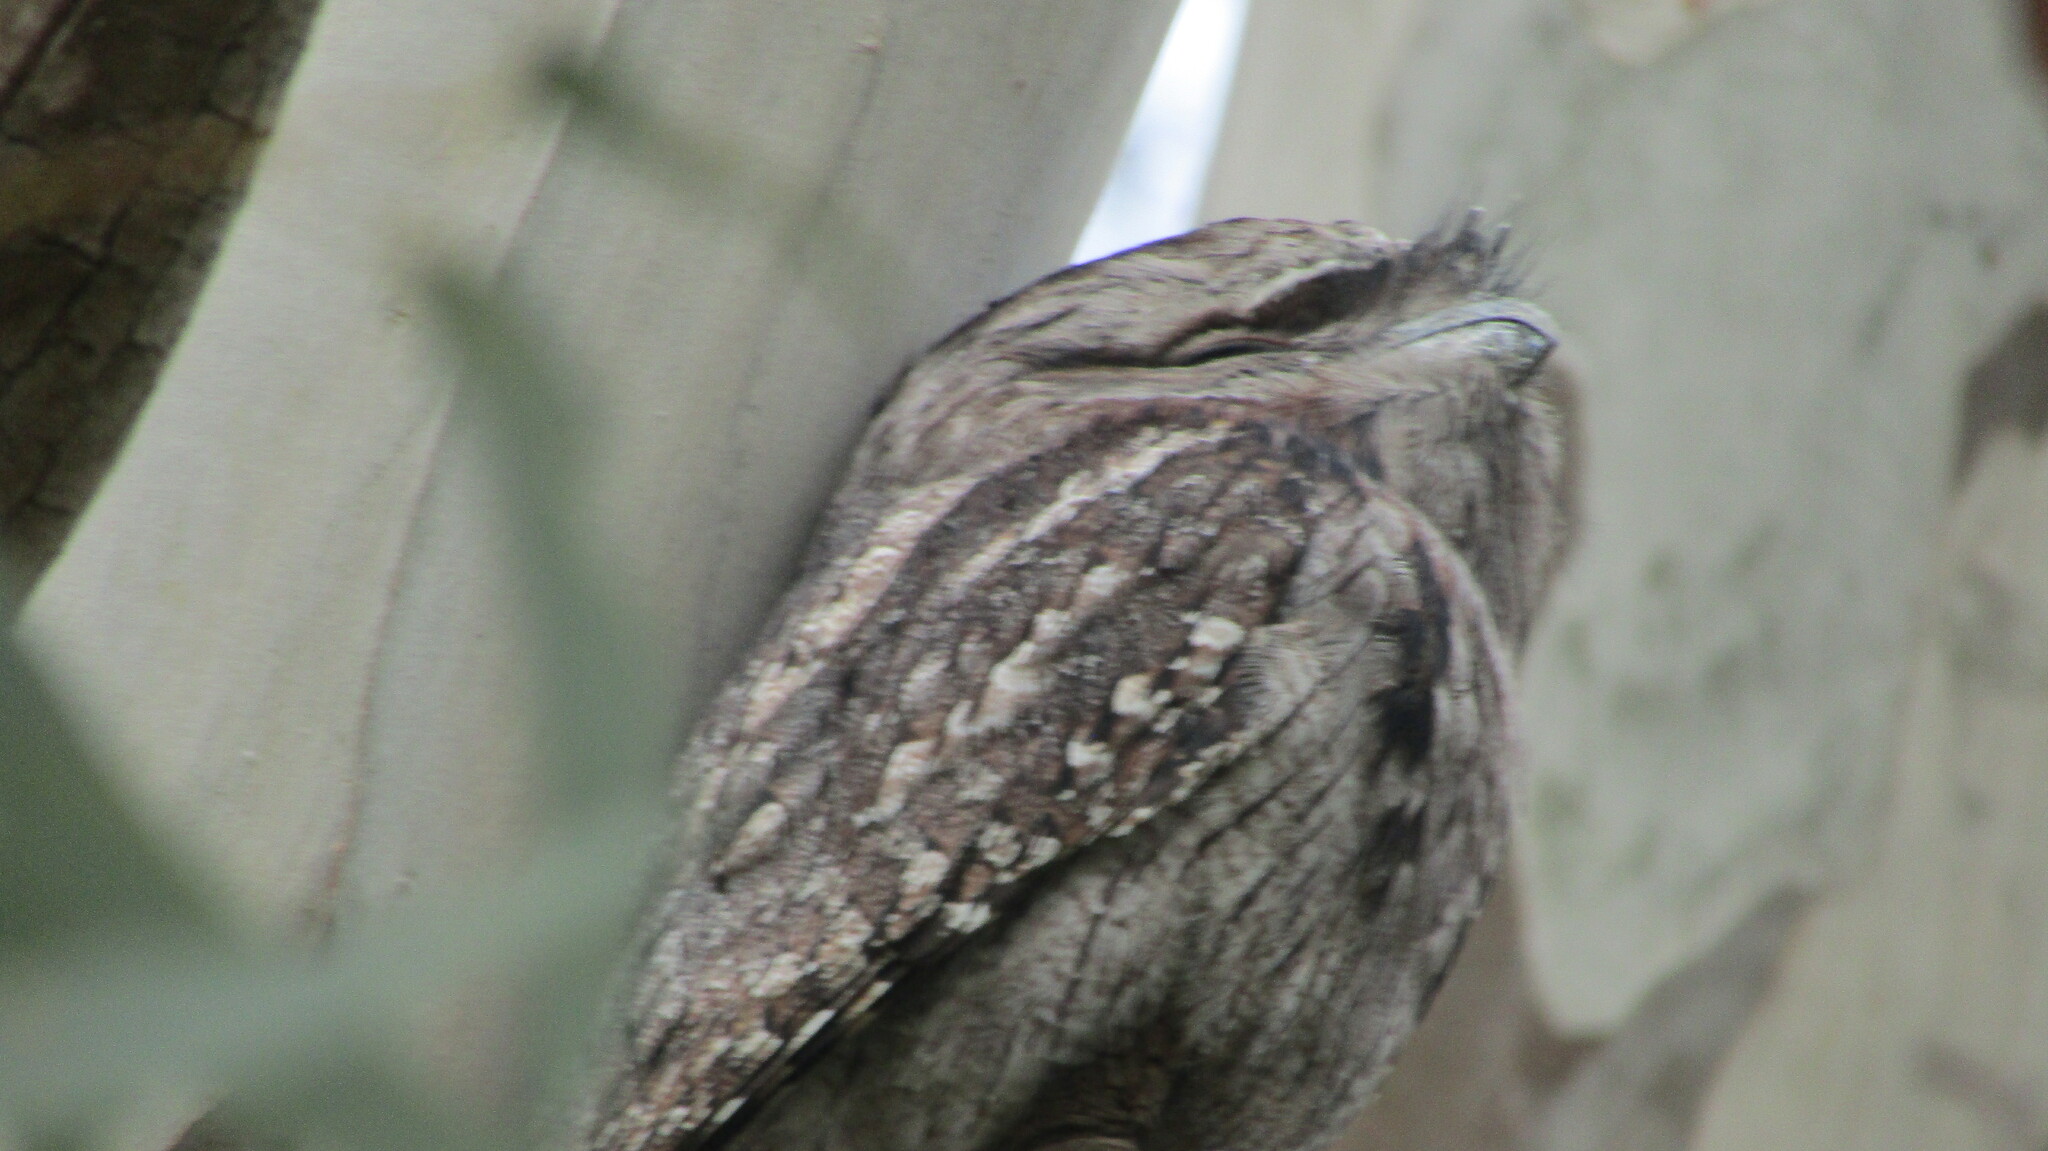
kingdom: Animalia
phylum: Chordata
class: Aves
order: Caprimulgiformes
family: Podargidae
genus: Podargus
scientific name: Podargus strigoides
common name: Tawny frogmouth
